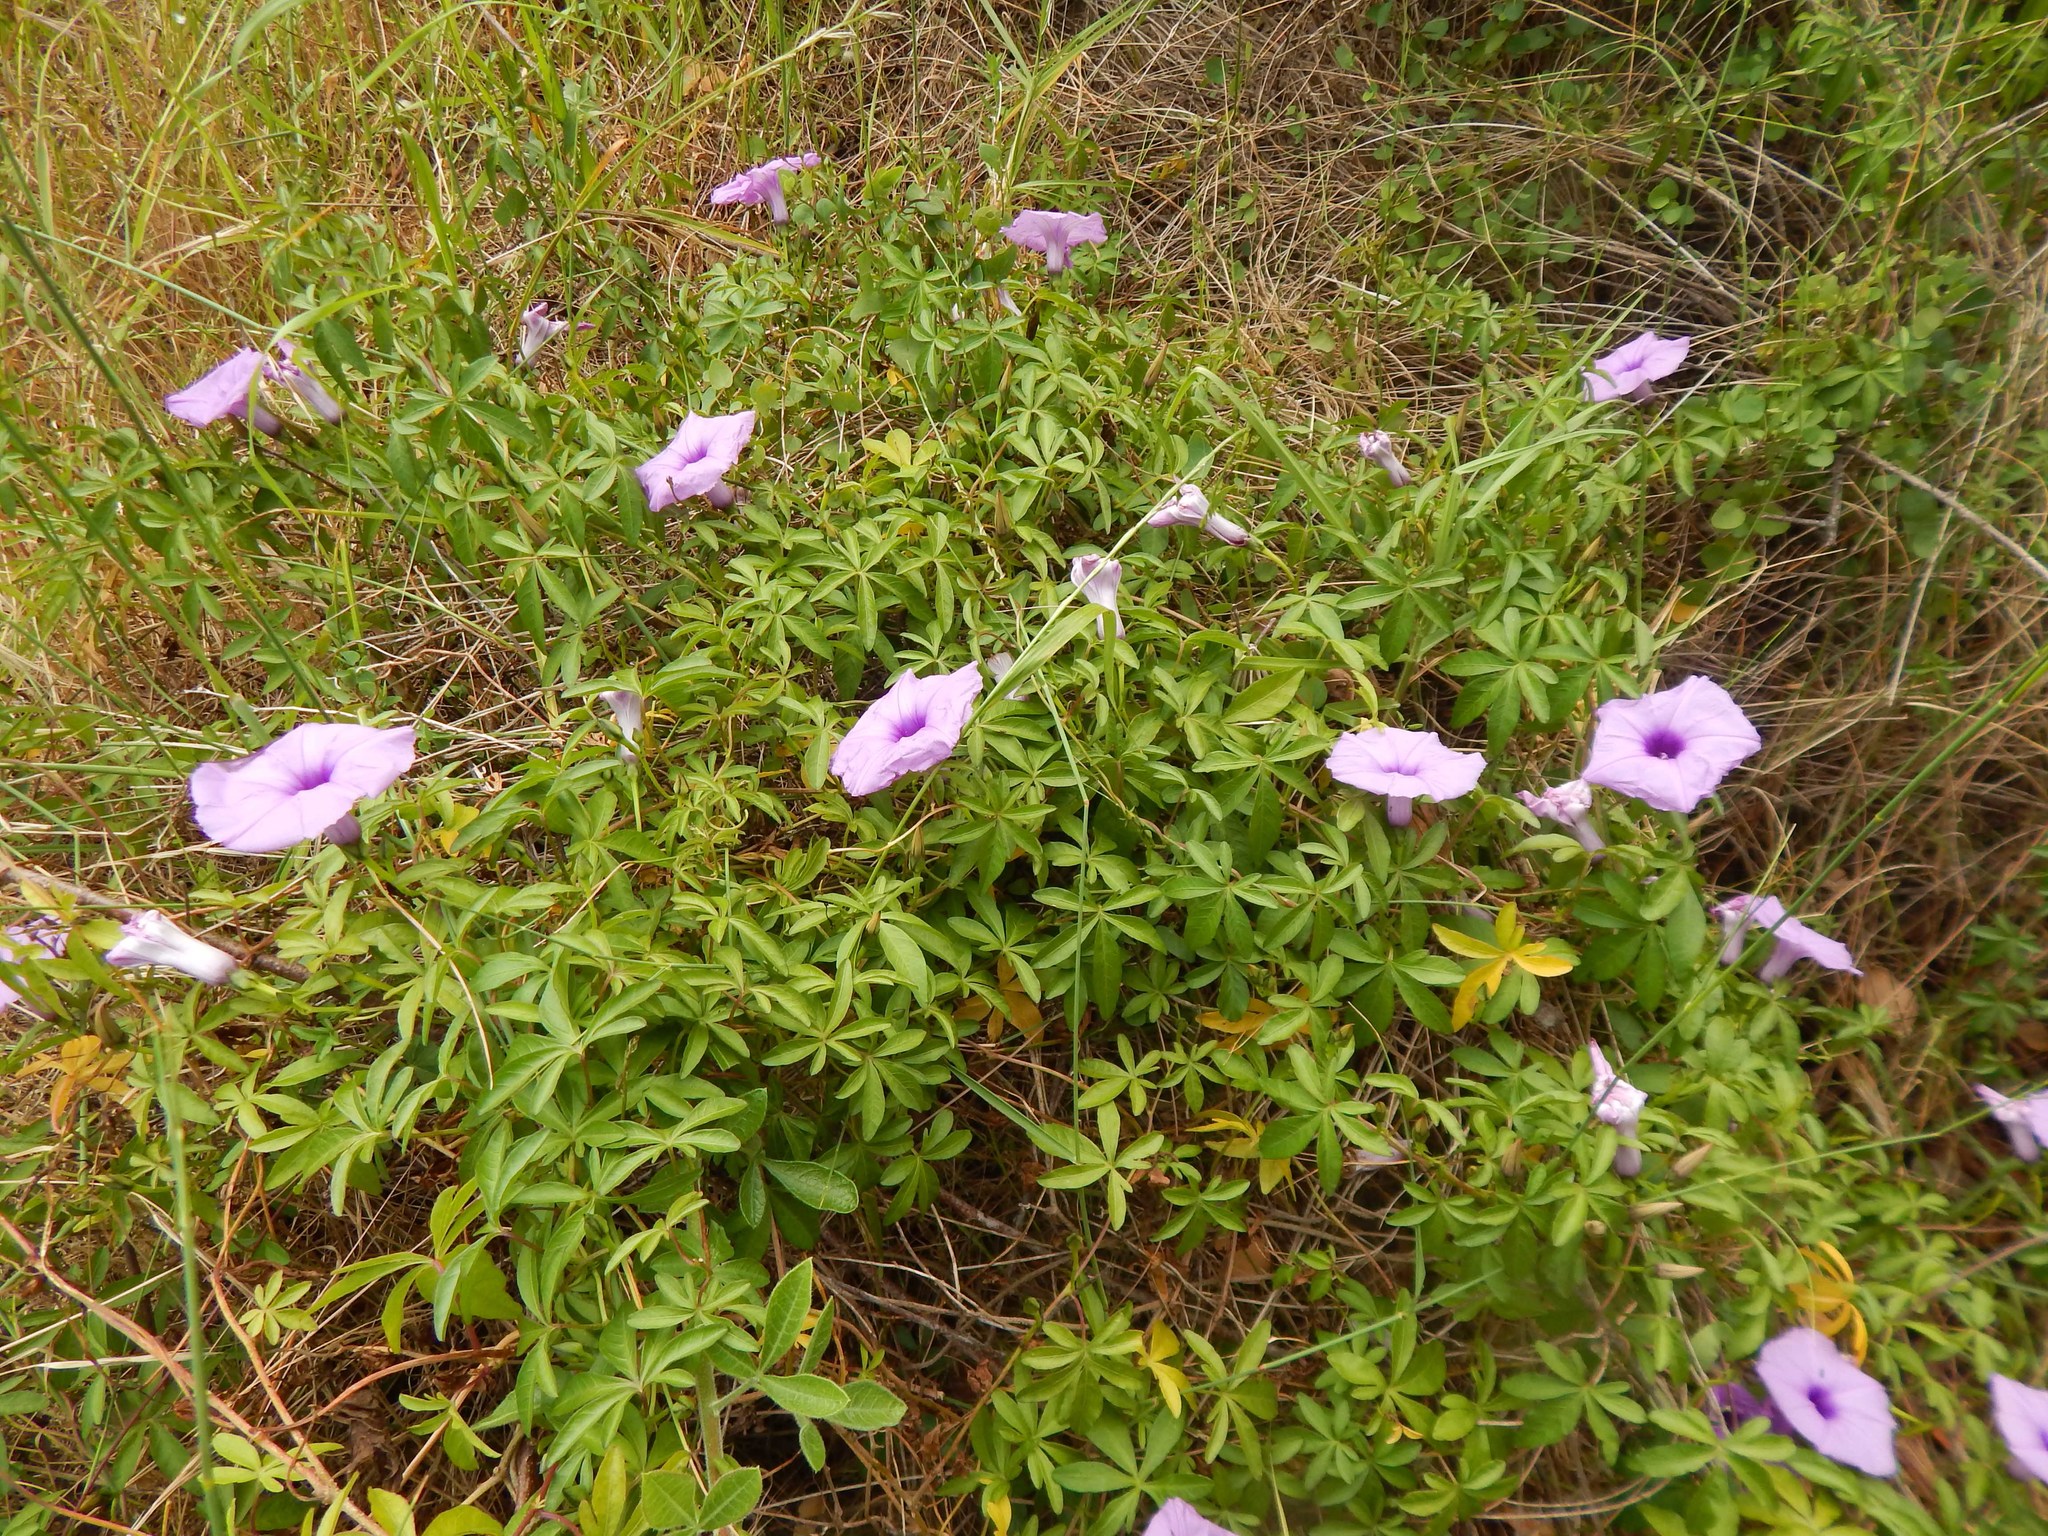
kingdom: Plantae
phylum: Tracheophyta
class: Magnoliopsida
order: Solanales
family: Convolvulaceae
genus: Ipomoea
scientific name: Ipomoea cairica
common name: Mile a minute vine
